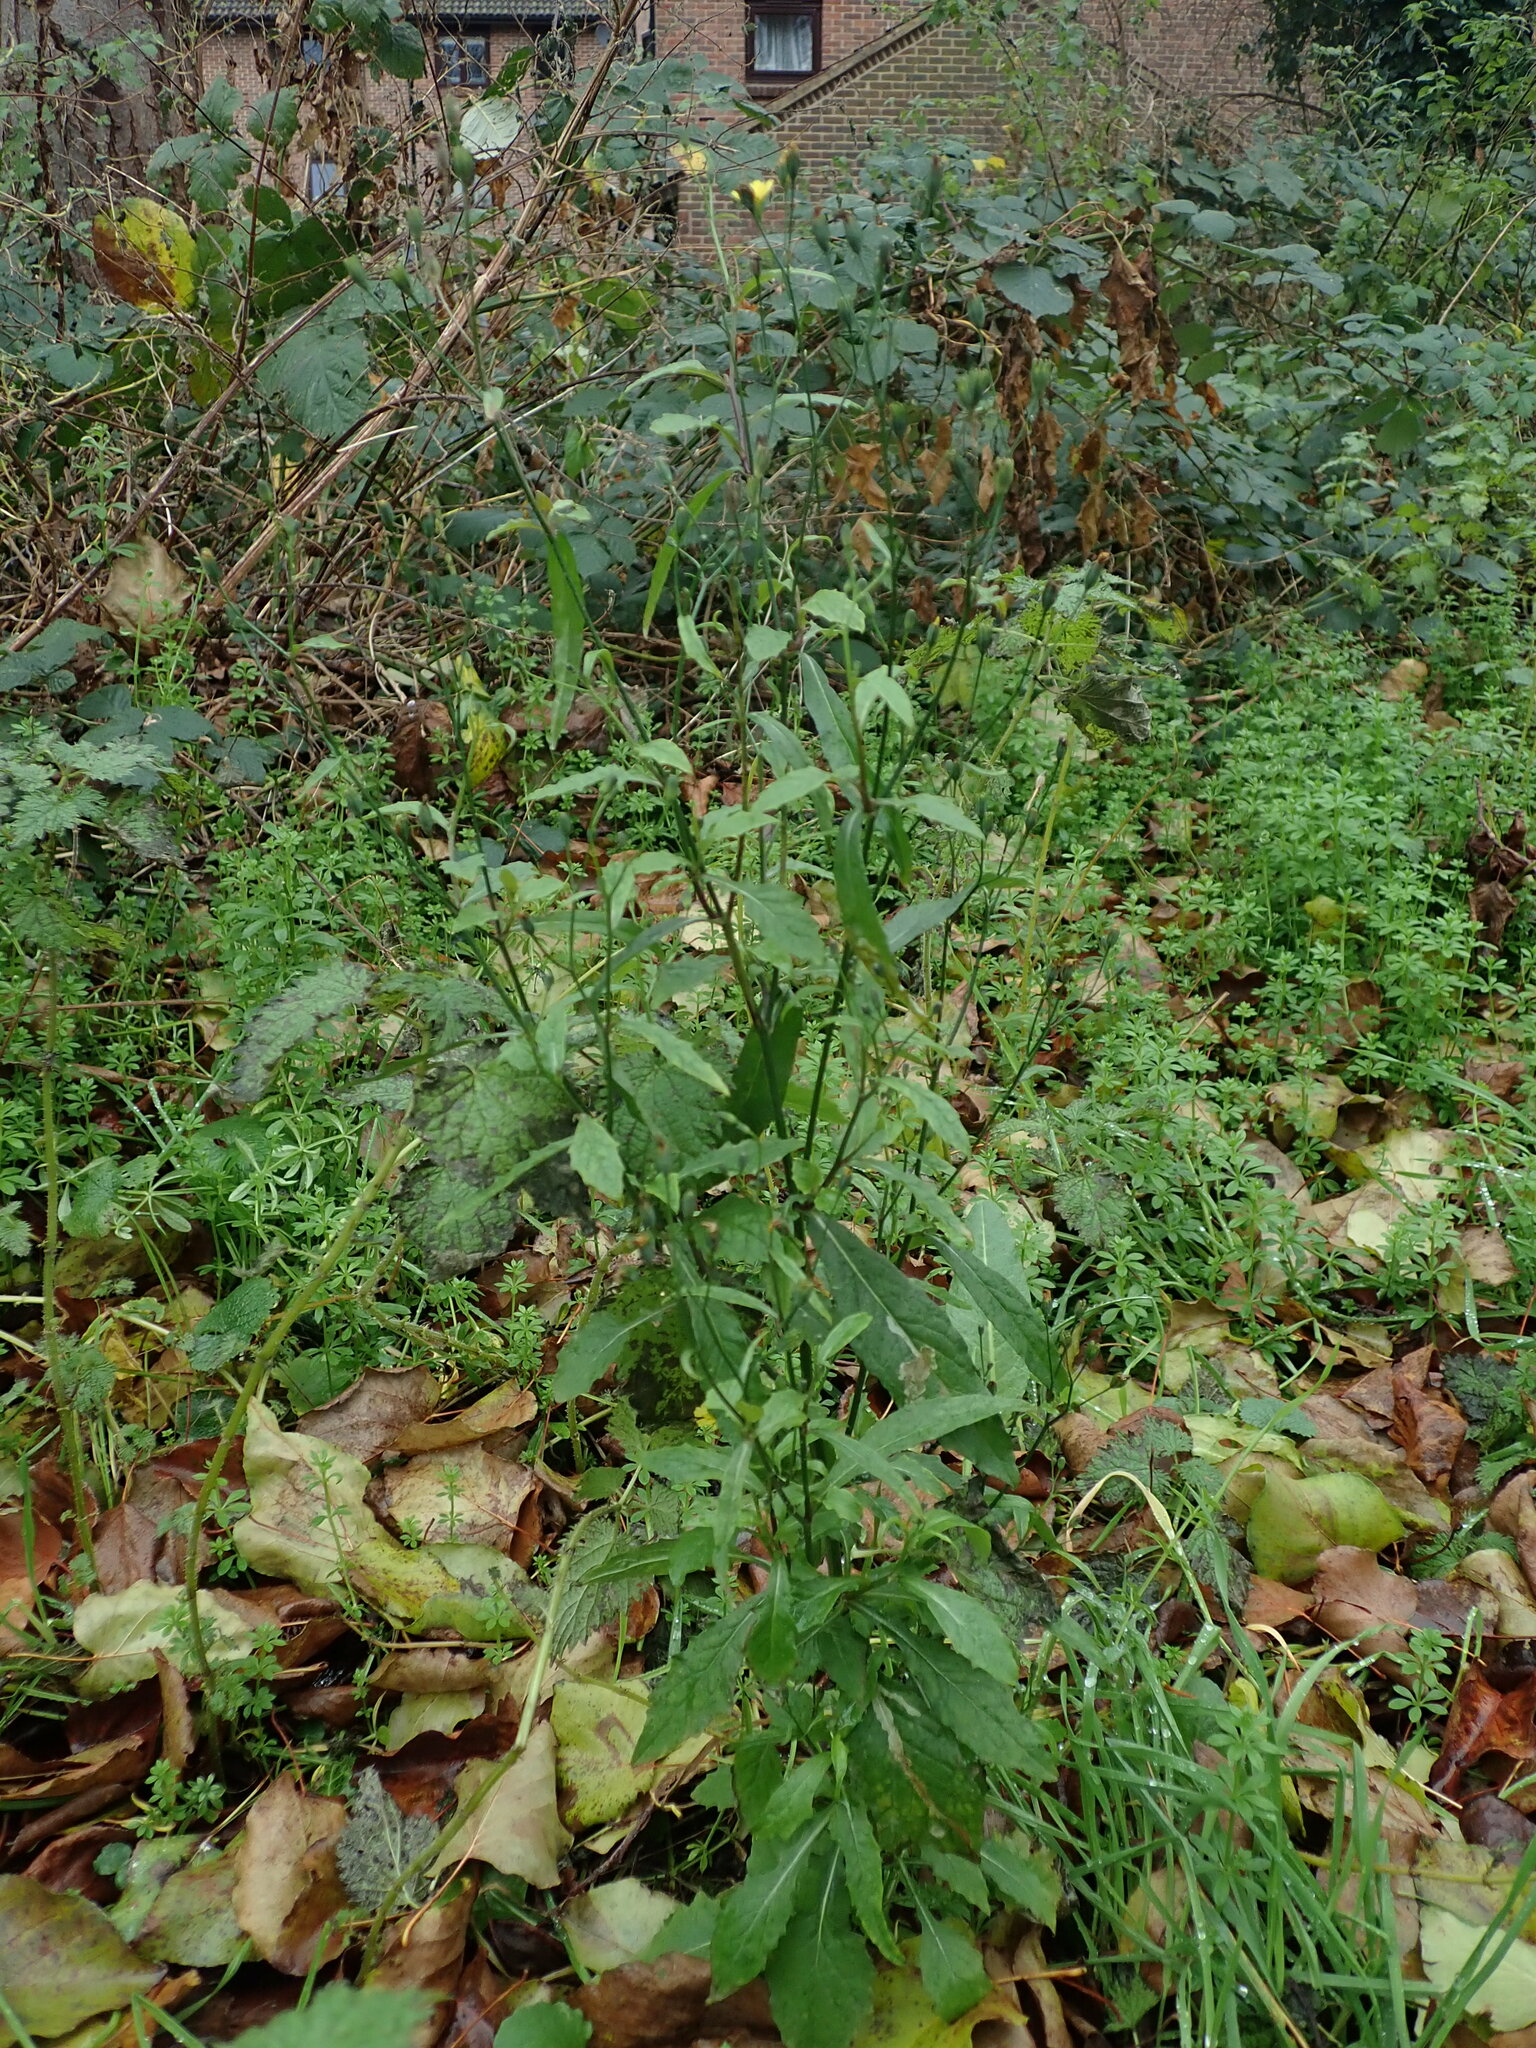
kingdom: Plantae
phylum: Tracheophyta
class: Magnoliopsida
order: Asterales
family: Asteraceae
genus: Lapsana
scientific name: Lapsana communis
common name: Nipplewort
